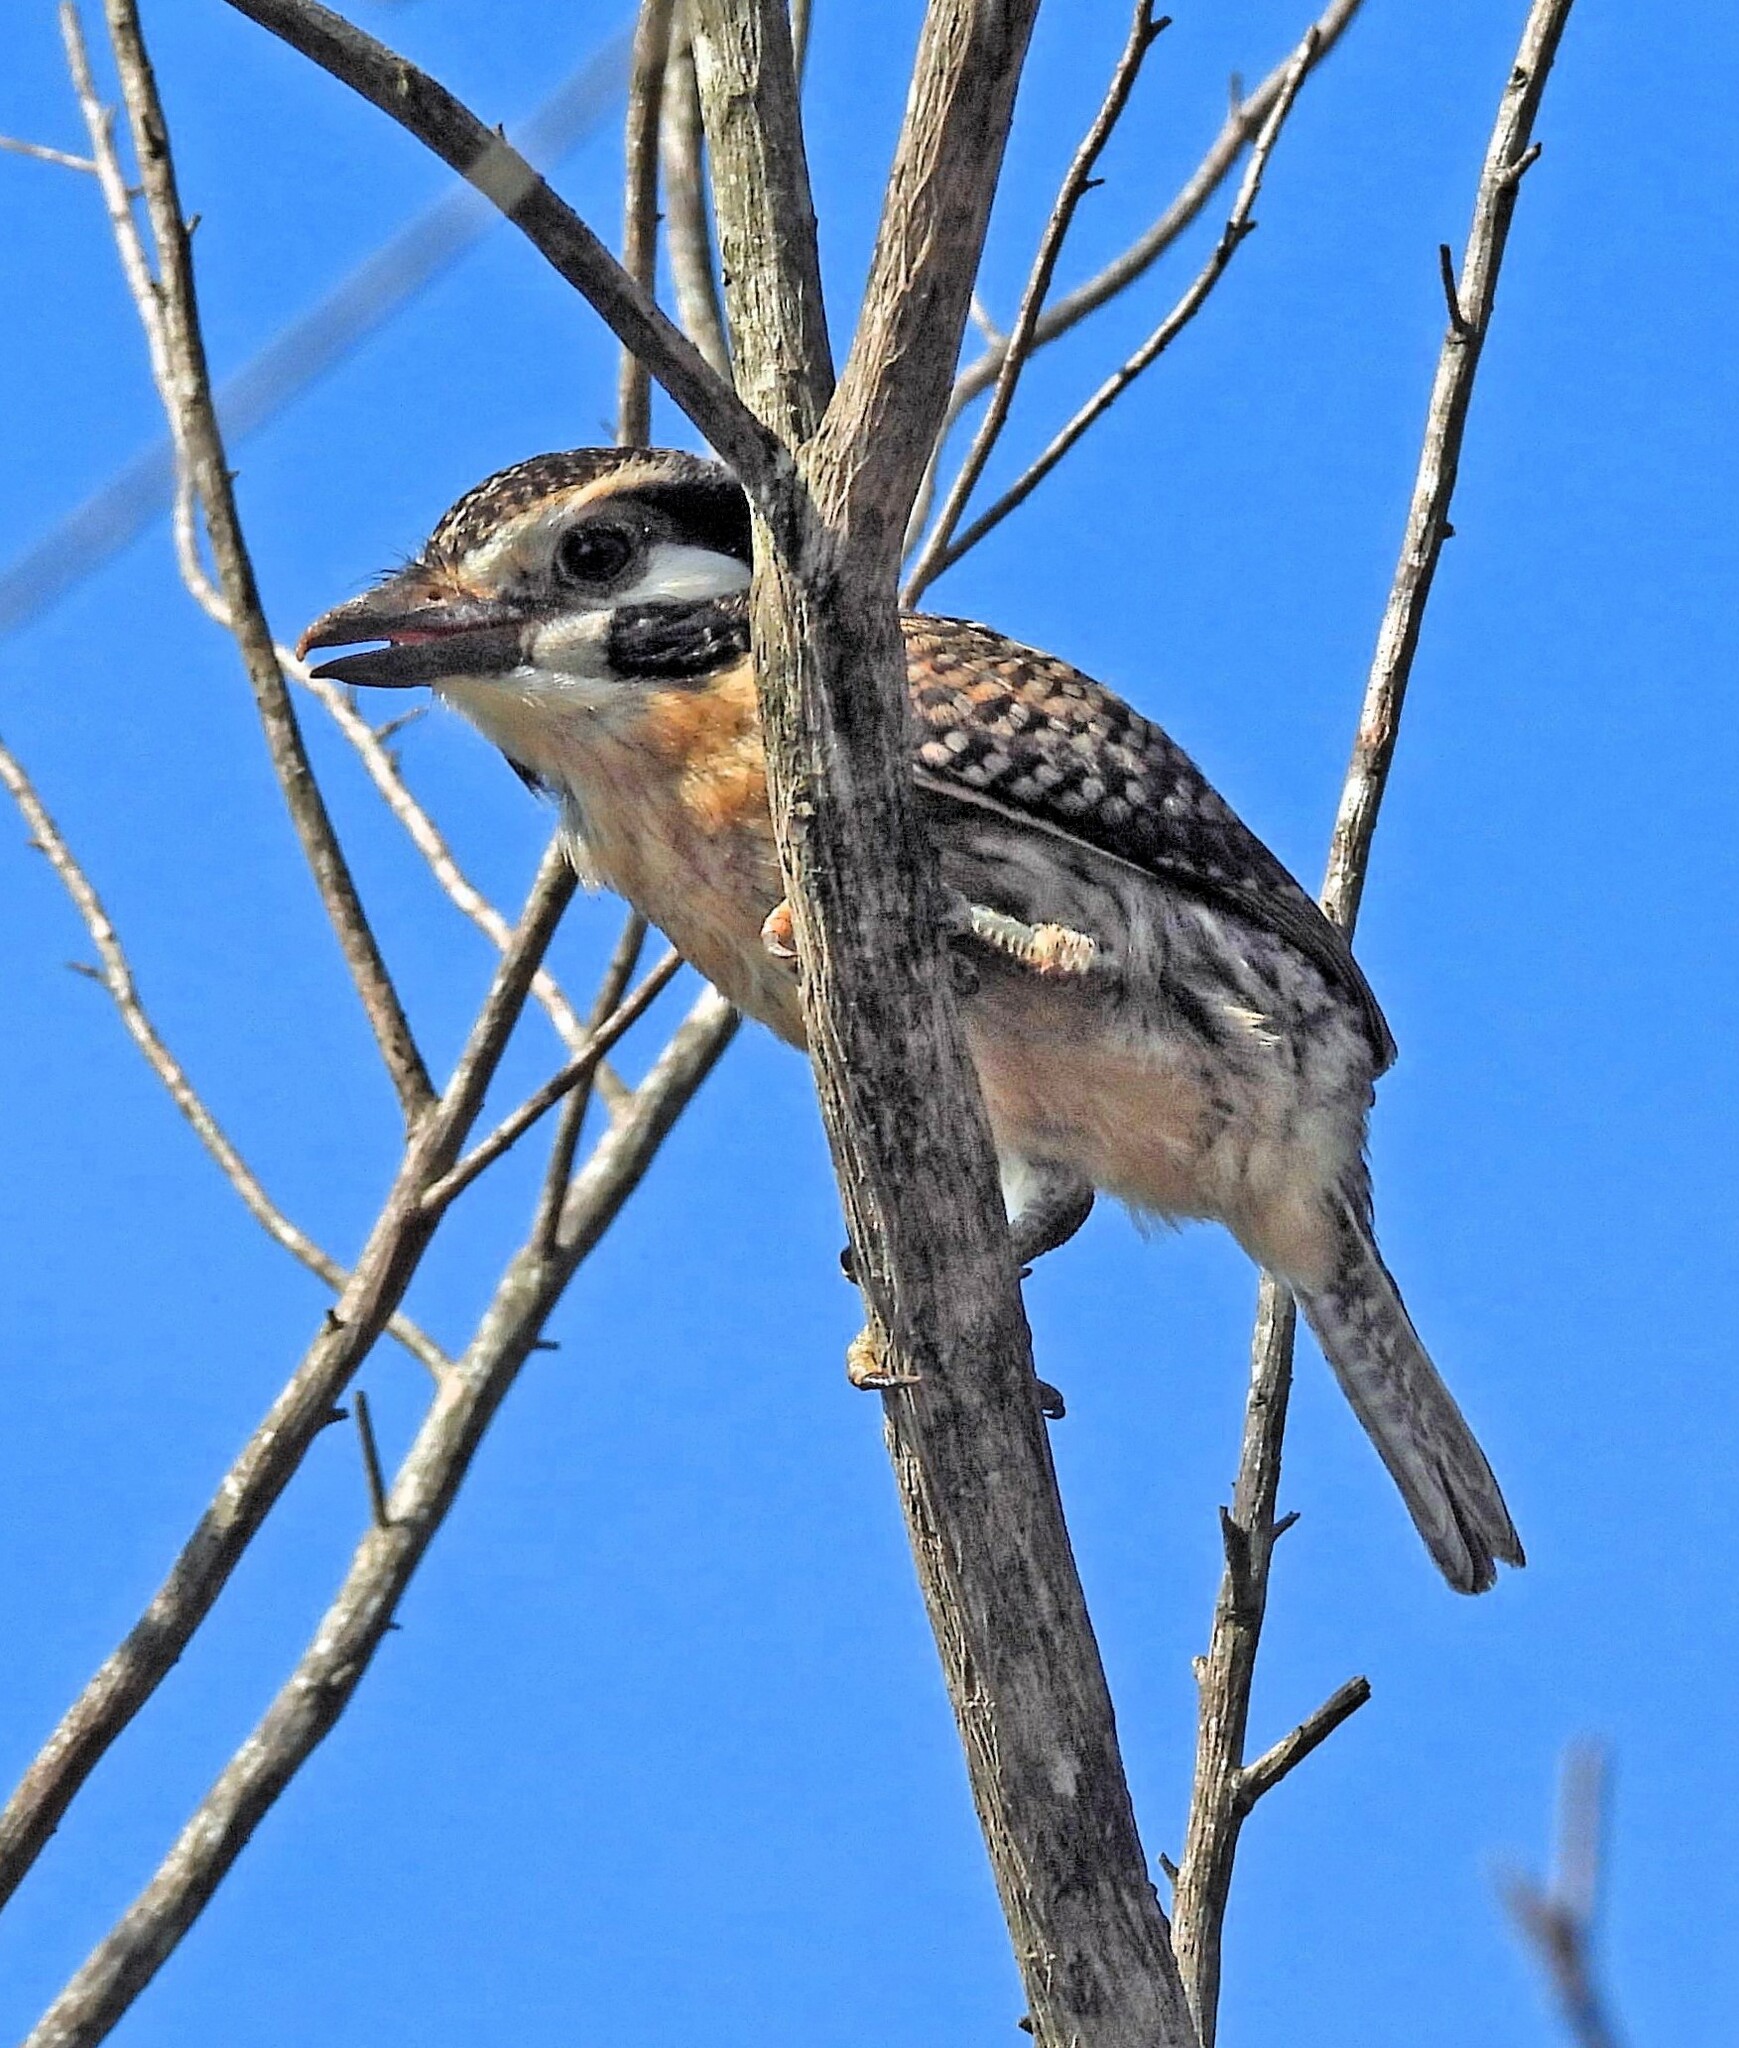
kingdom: Animalia
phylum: Chordata
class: Aves
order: Piciformes
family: Bucconidae
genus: Nystalus
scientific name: Nystalus chacuru
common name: White-eared puffbird
